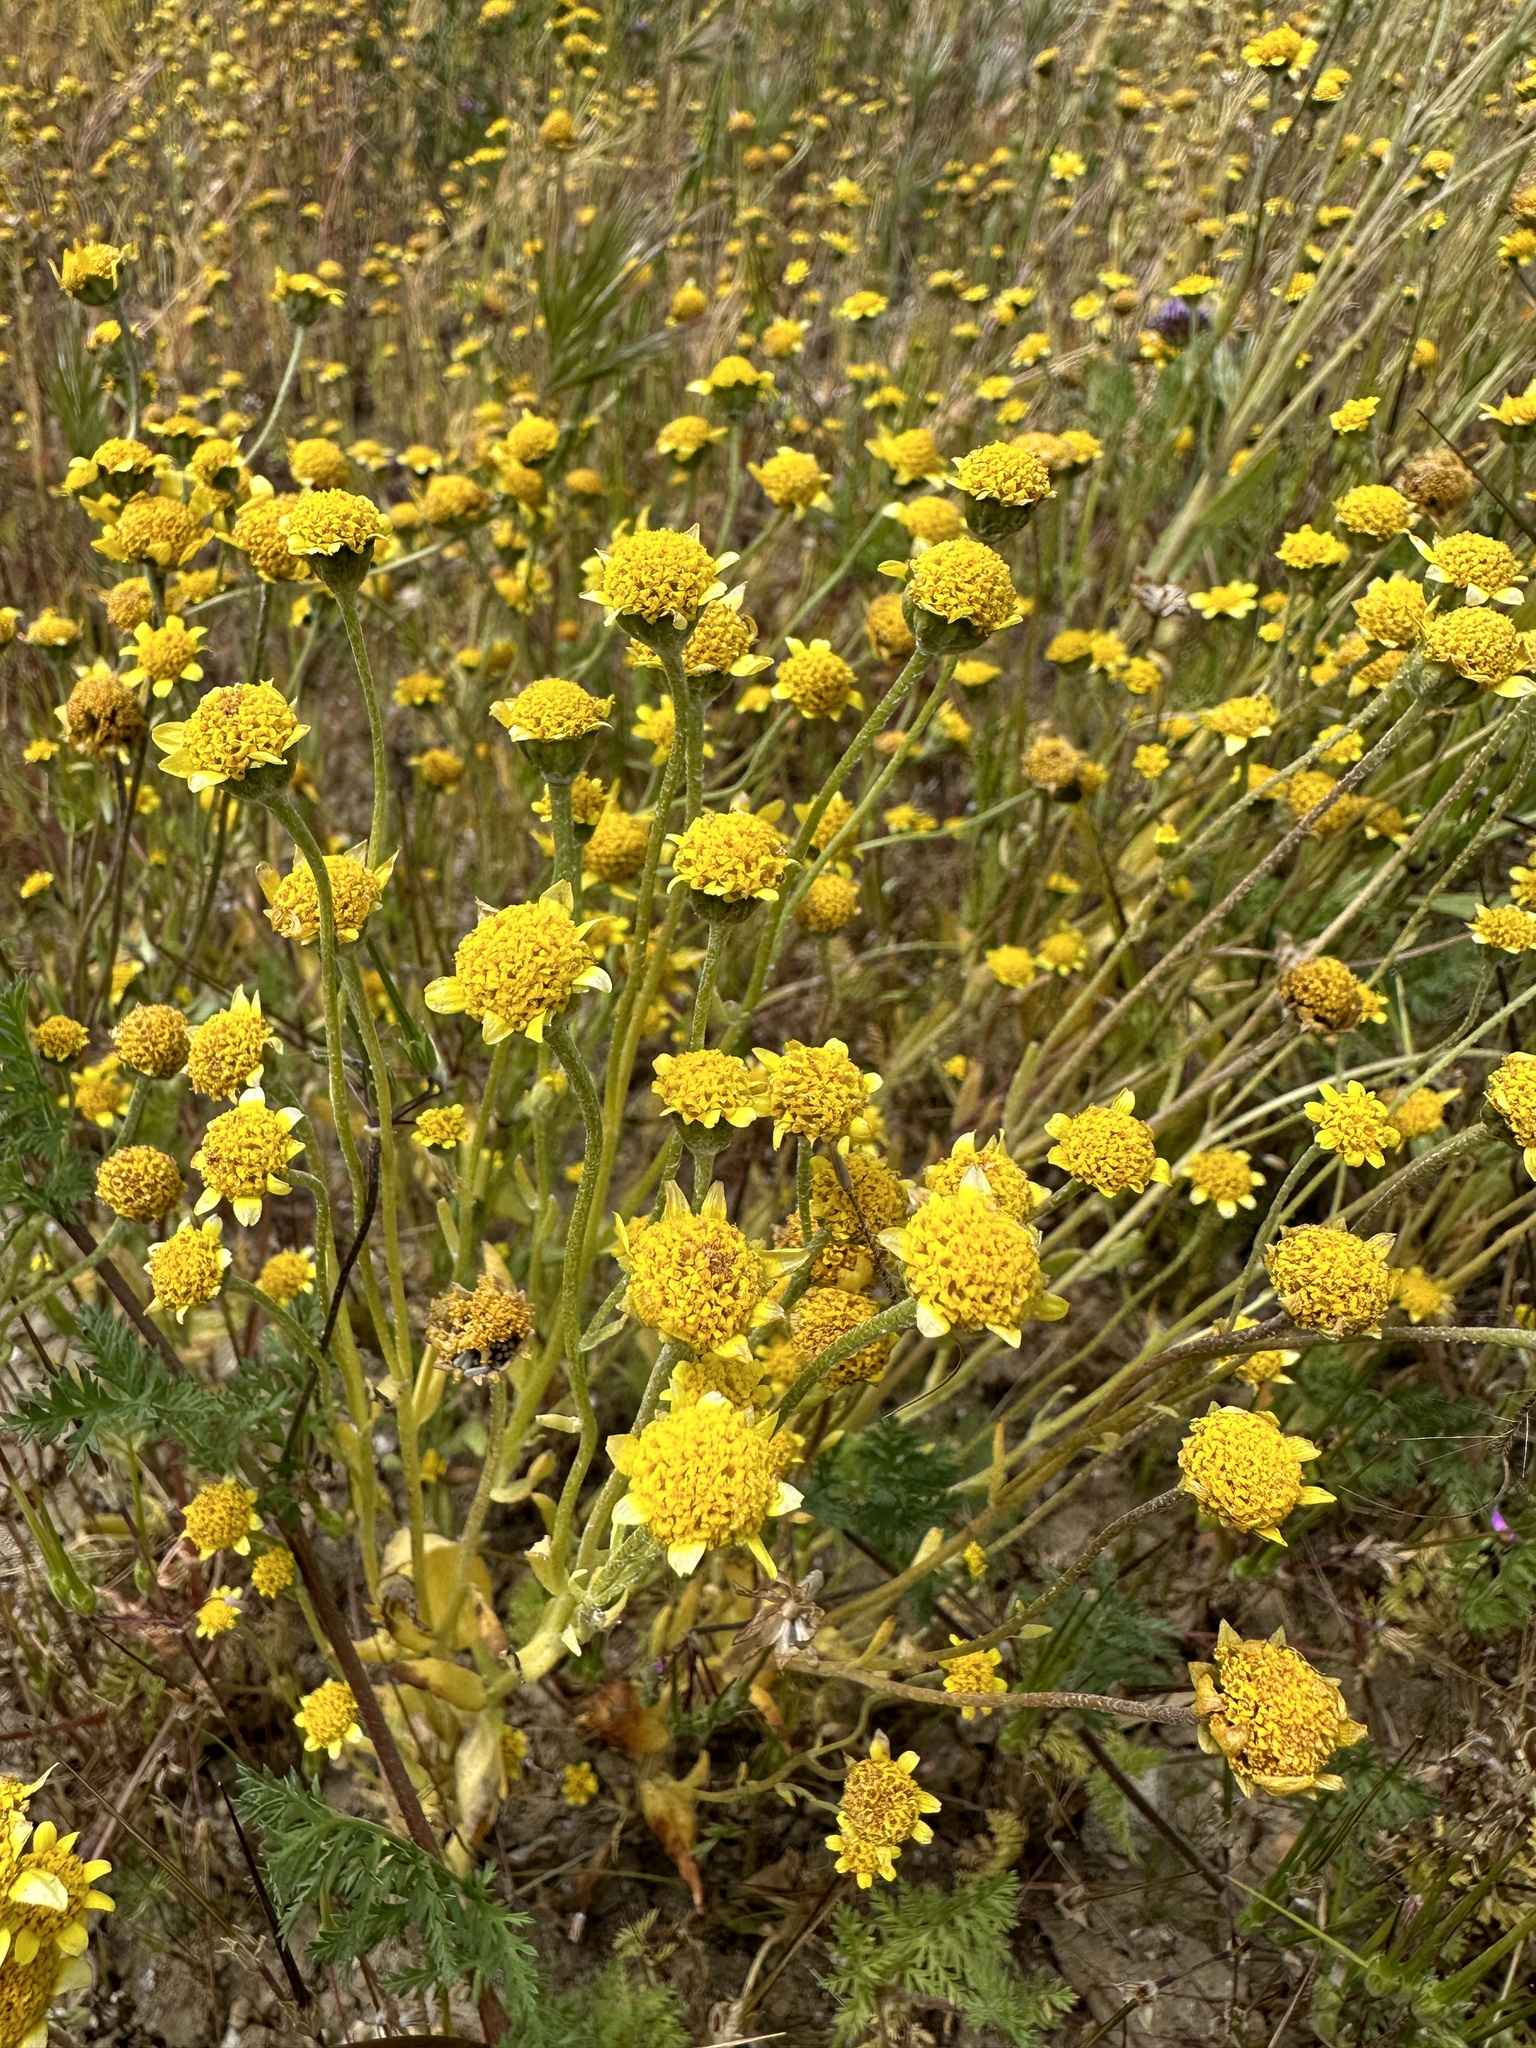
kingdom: Plantae
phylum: Tracheophyta
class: Magnoliopsida
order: Asterales
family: Asteraceae
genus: Monolopia
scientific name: Monolopia stricta
